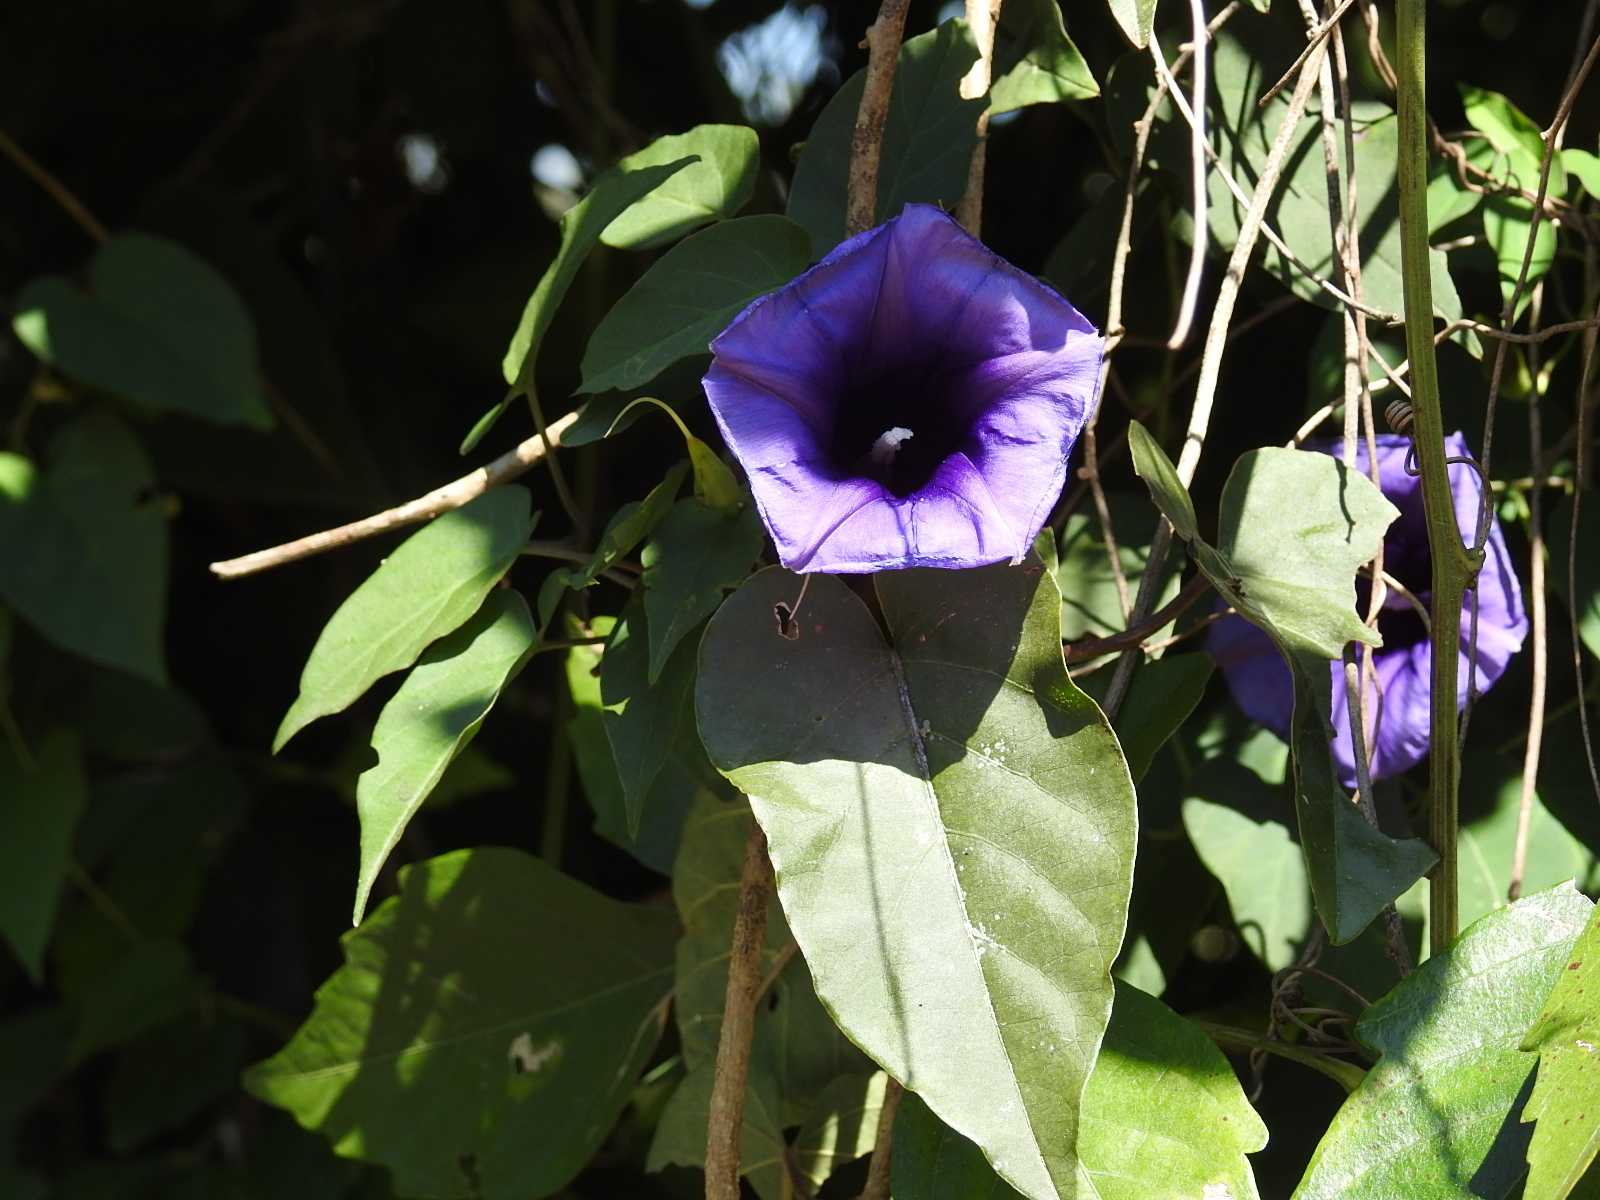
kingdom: Plantae
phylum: Tracheophyta
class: Magnoliopsida
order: Solanales
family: Convolvulaceae
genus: Ipomoea
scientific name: Ipomoea lindenii
